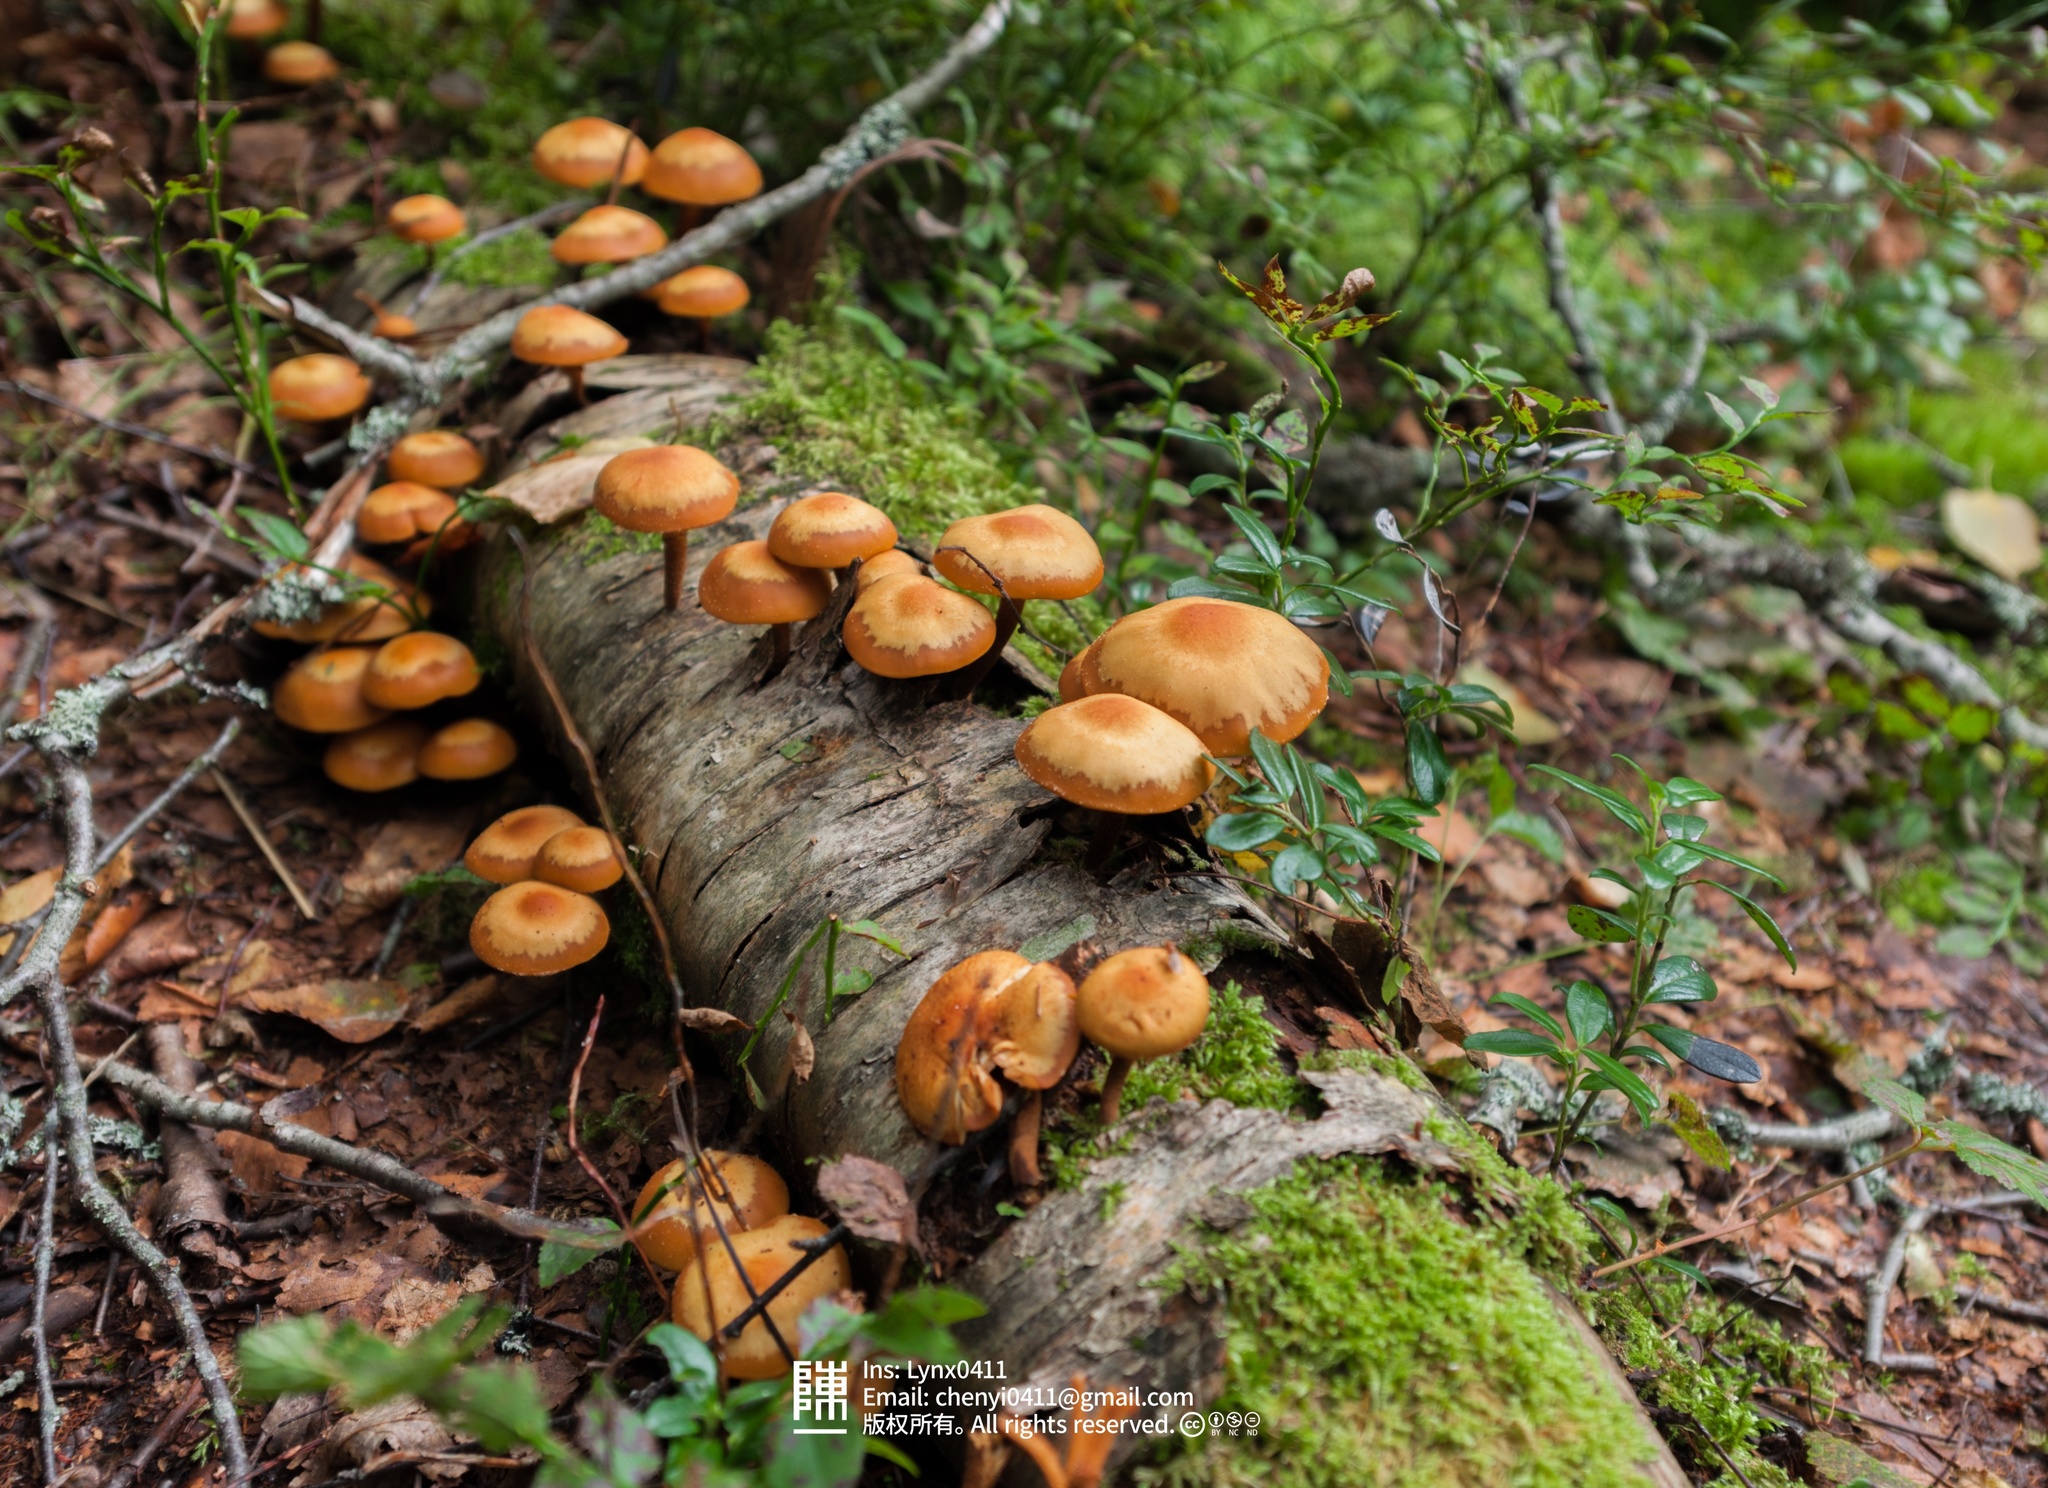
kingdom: Fungi
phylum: Basidiomycota
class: Agaricomycetes
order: Agaricales
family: Strophariaceae
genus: Kuehneromyces
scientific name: Kuehneromyces mutabilis
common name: Sheathed woodtuft
